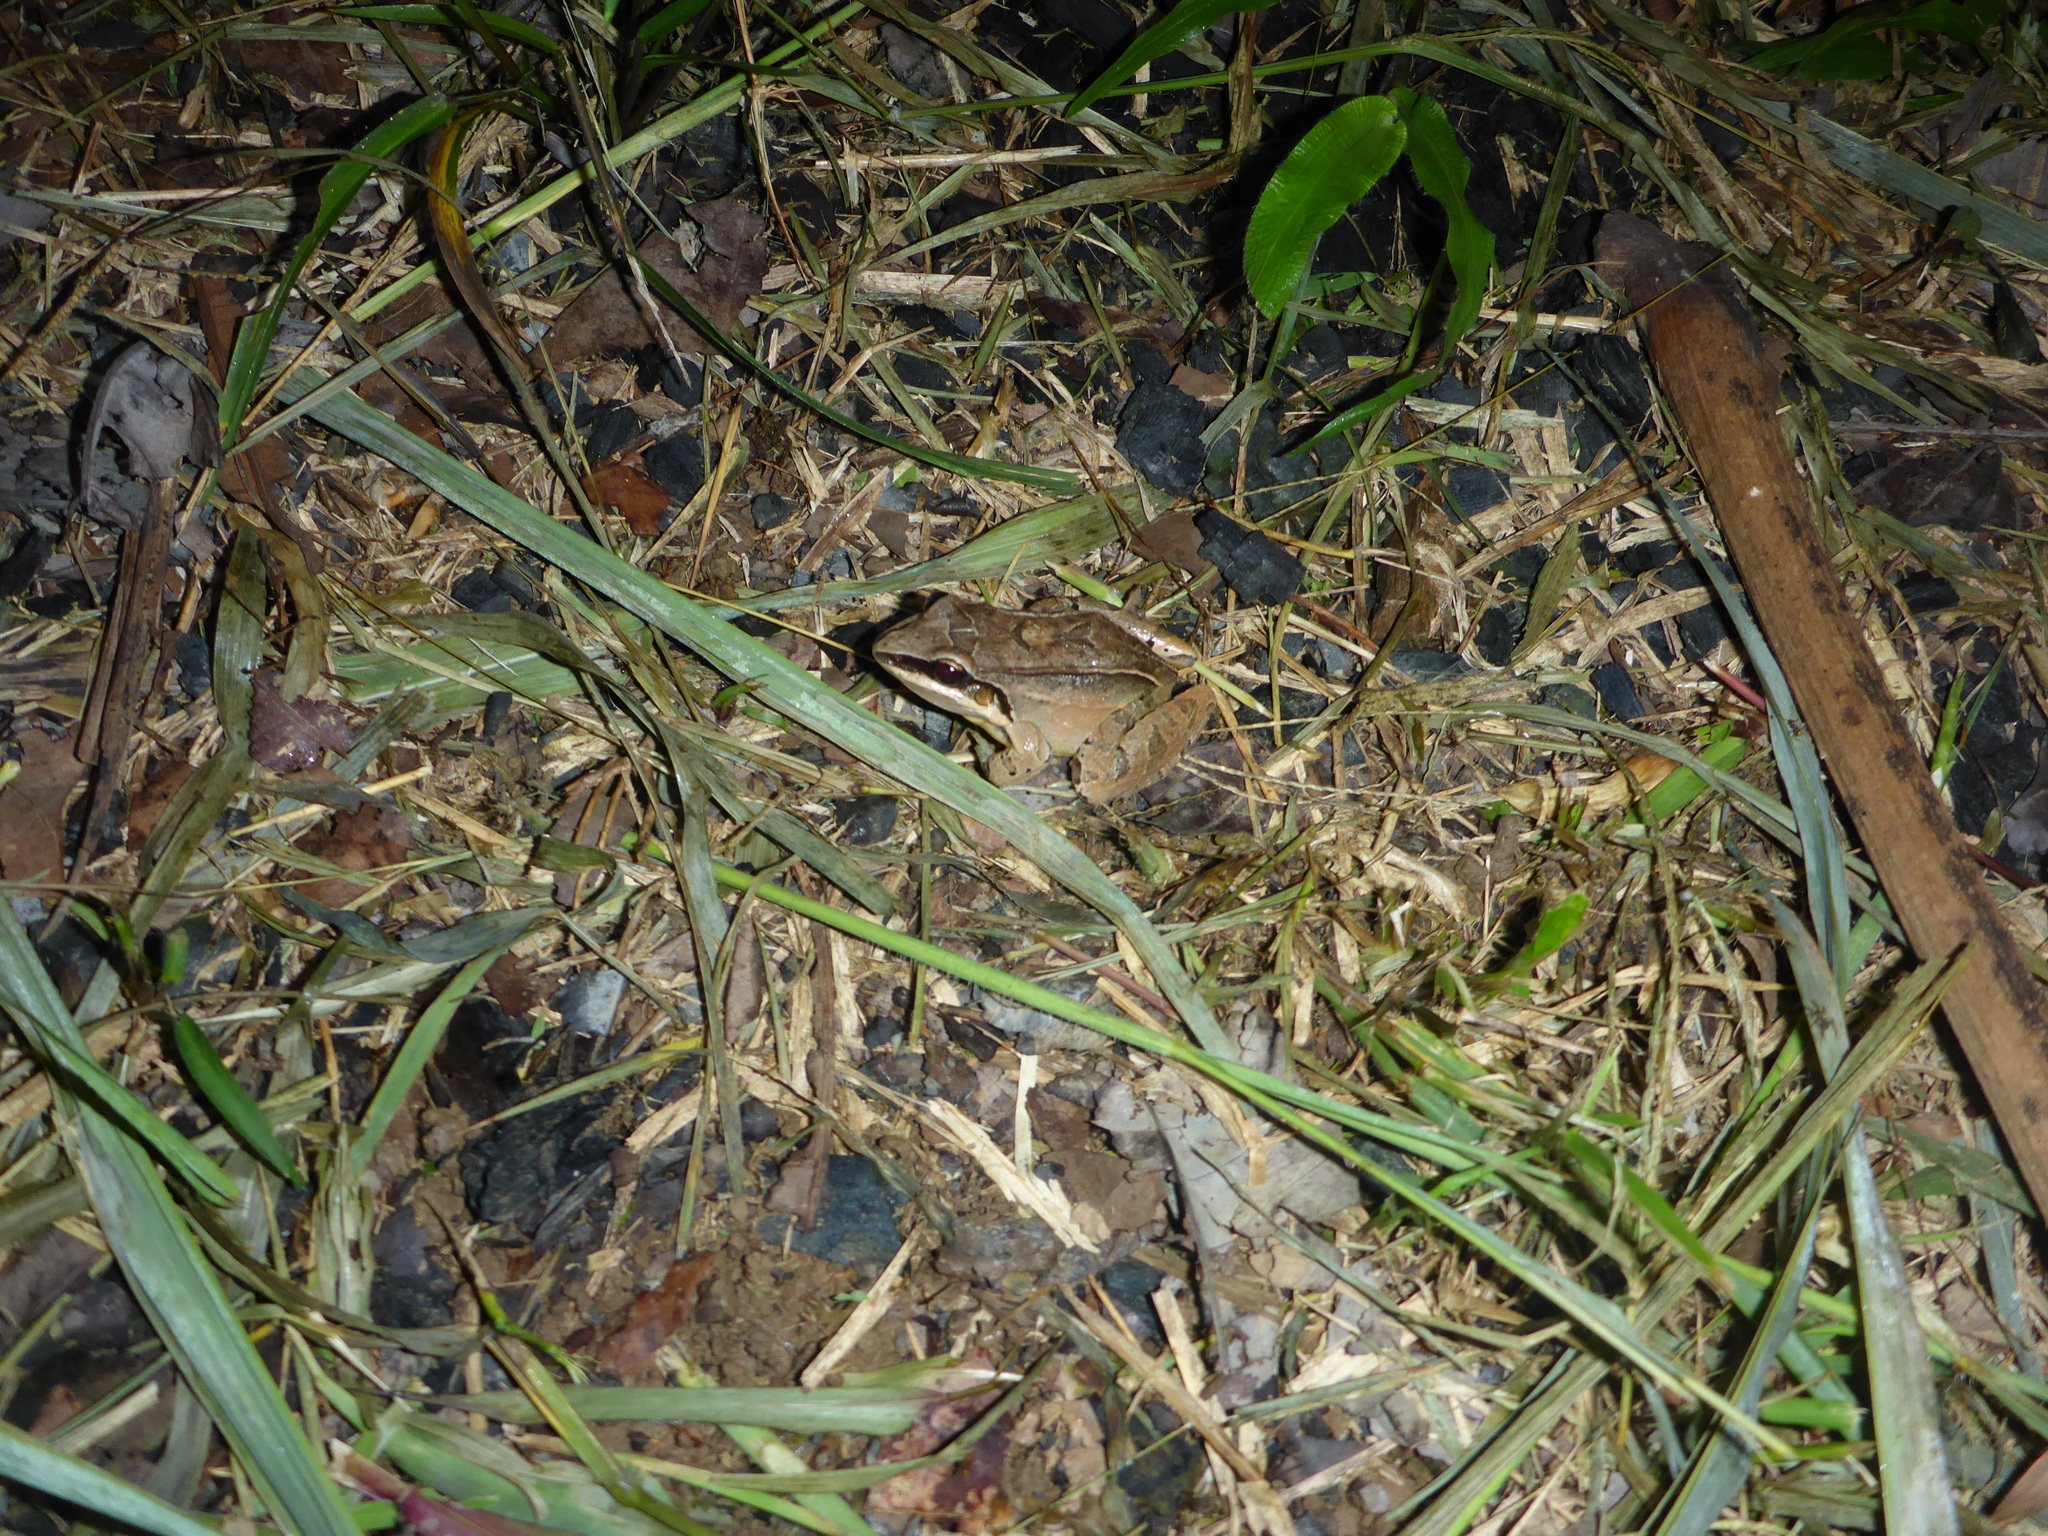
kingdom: Animalia
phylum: Chordata
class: Amphibia
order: Anura
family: Leptodactylidae
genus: Leptodactylus
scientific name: Leptodactylus mystaceus
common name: Amazonian white-lipped frog
